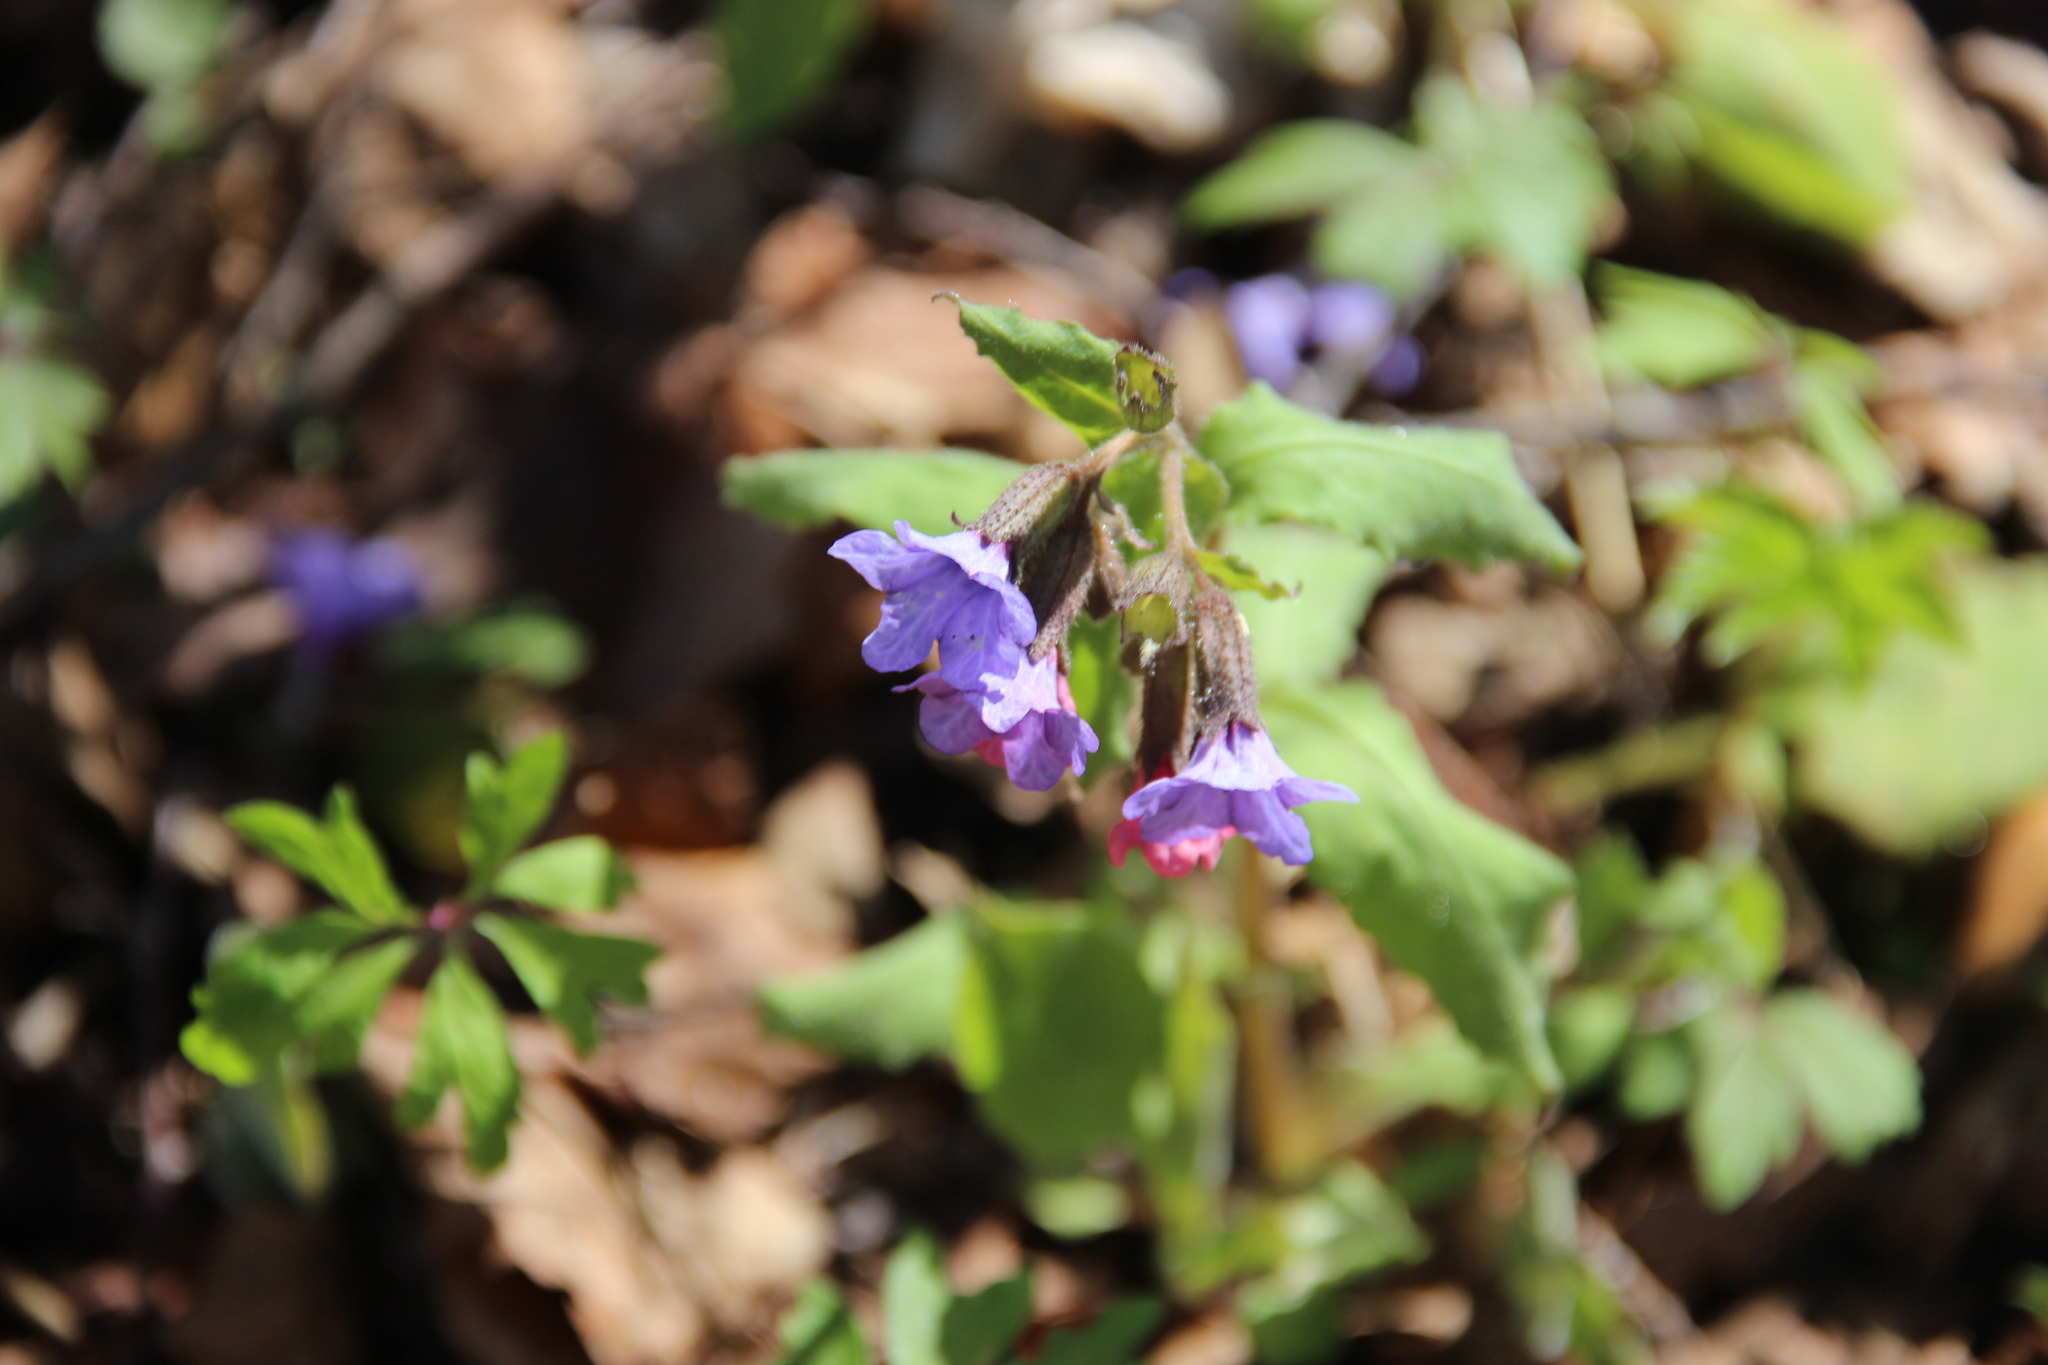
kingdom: Plantae
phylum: Tracheophyta
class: Magnoliopsida
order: Boraginales
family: Boraginaceae
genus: Pulmonaria
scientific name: Pulmonaria obscura
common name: Suffolk lungwort
